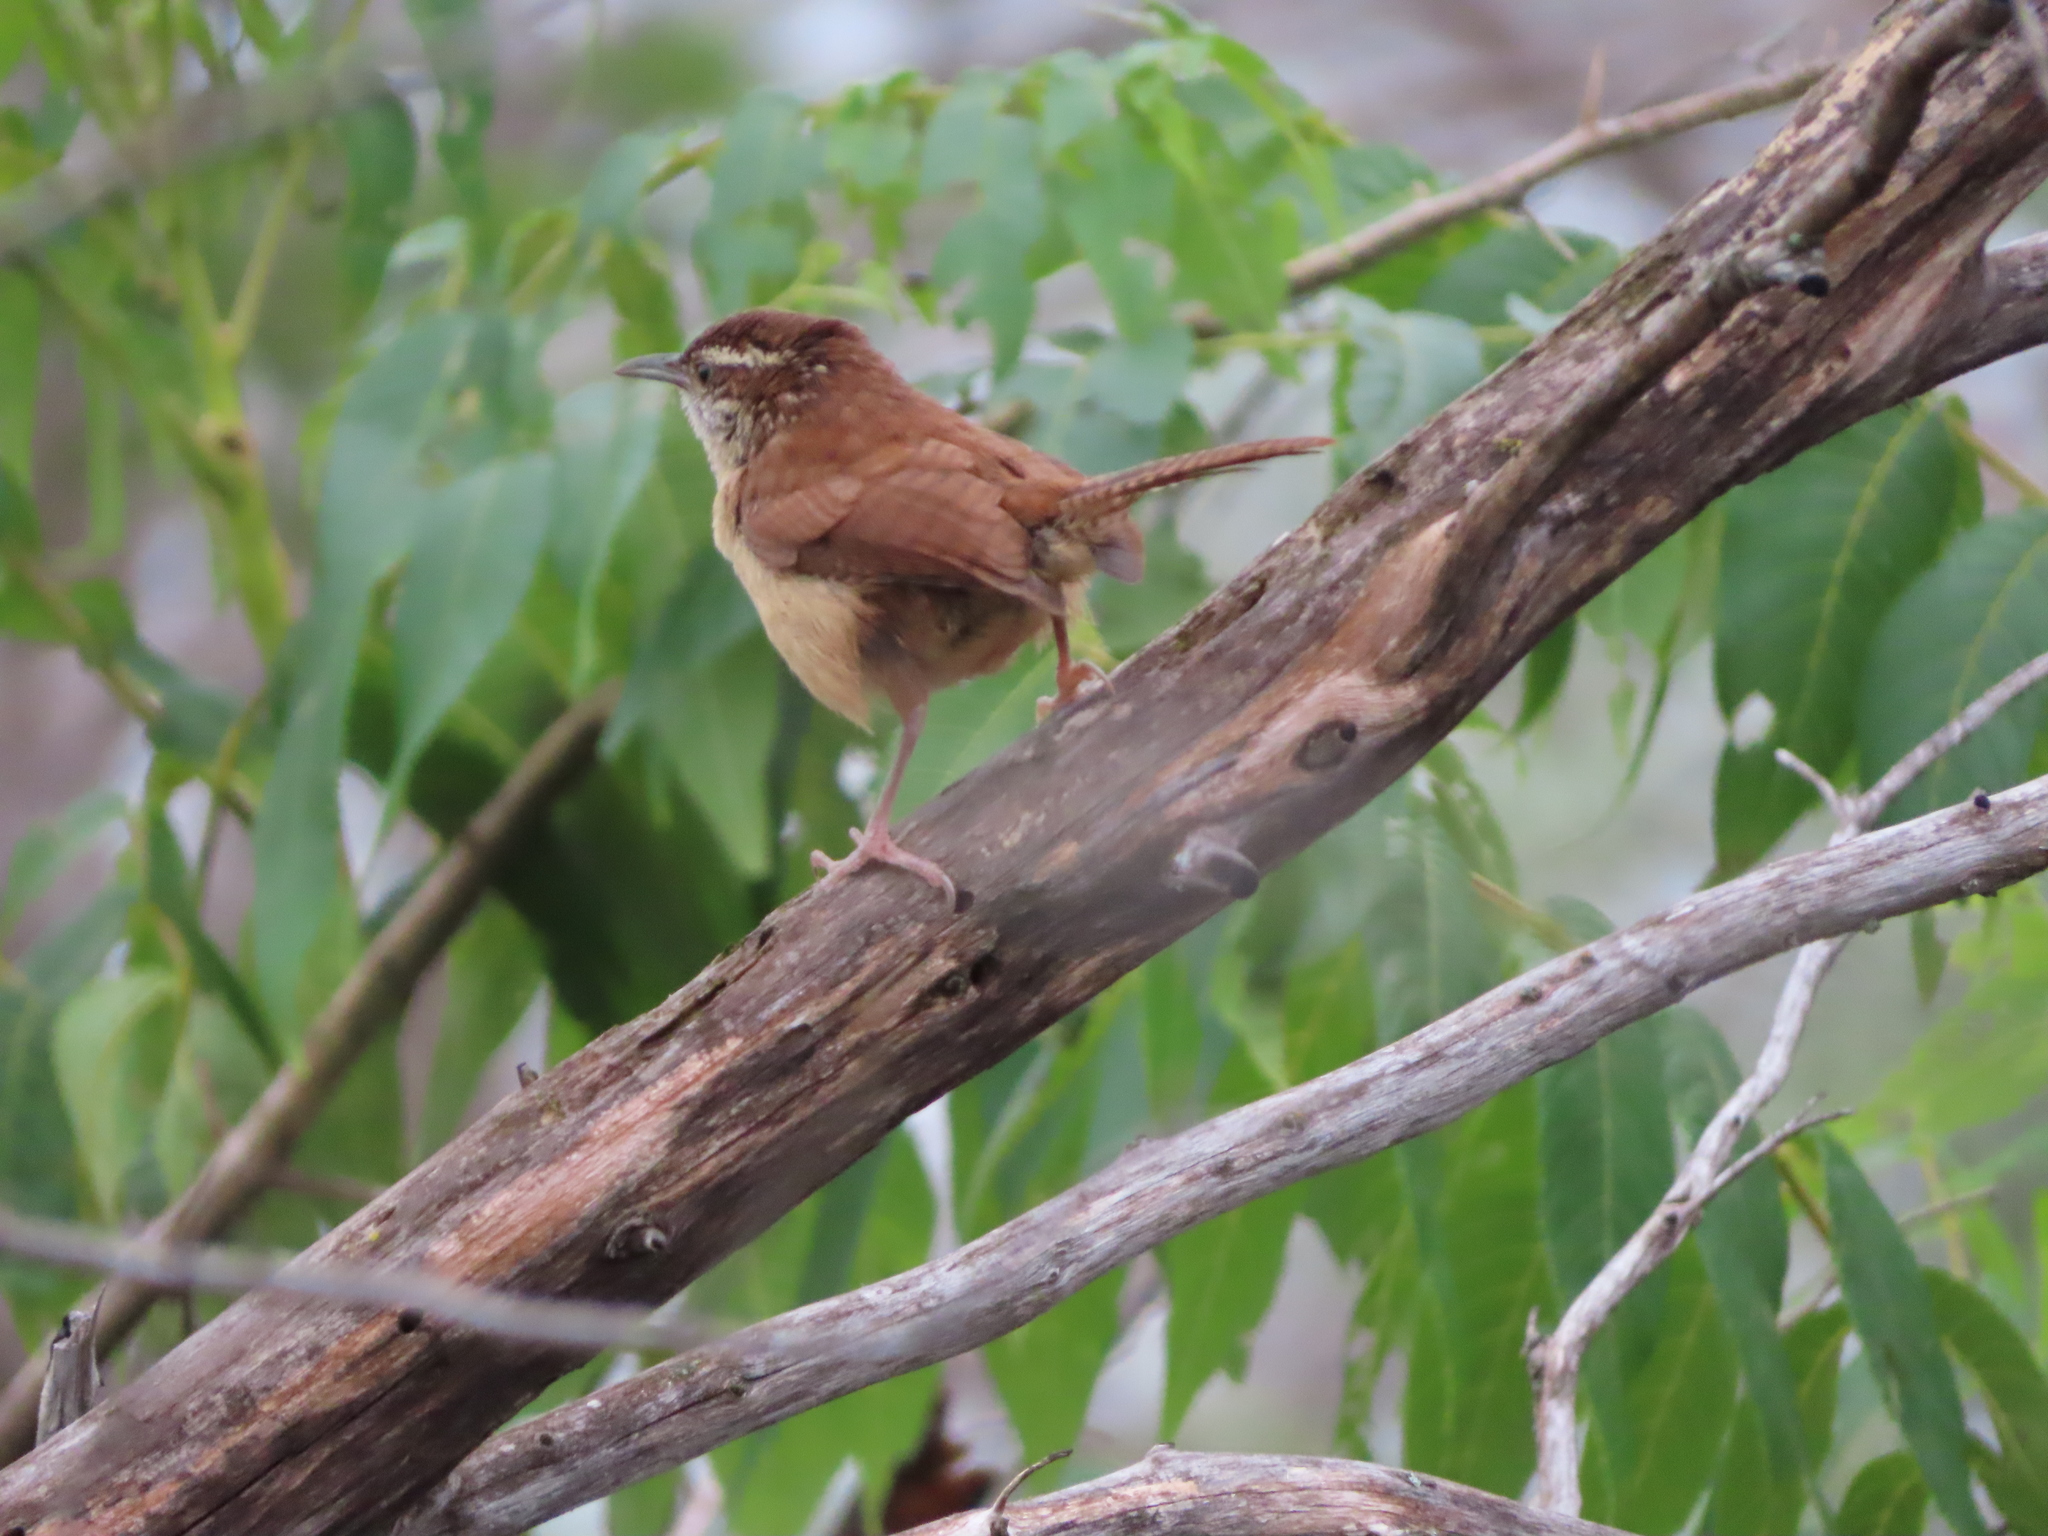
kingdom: Animalia
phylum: Chordata
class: Aves
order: Passeriformes
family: Troglodytidae
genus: Thryothorus
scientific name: Thryothorus ludovicianus
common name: Carolina wren
